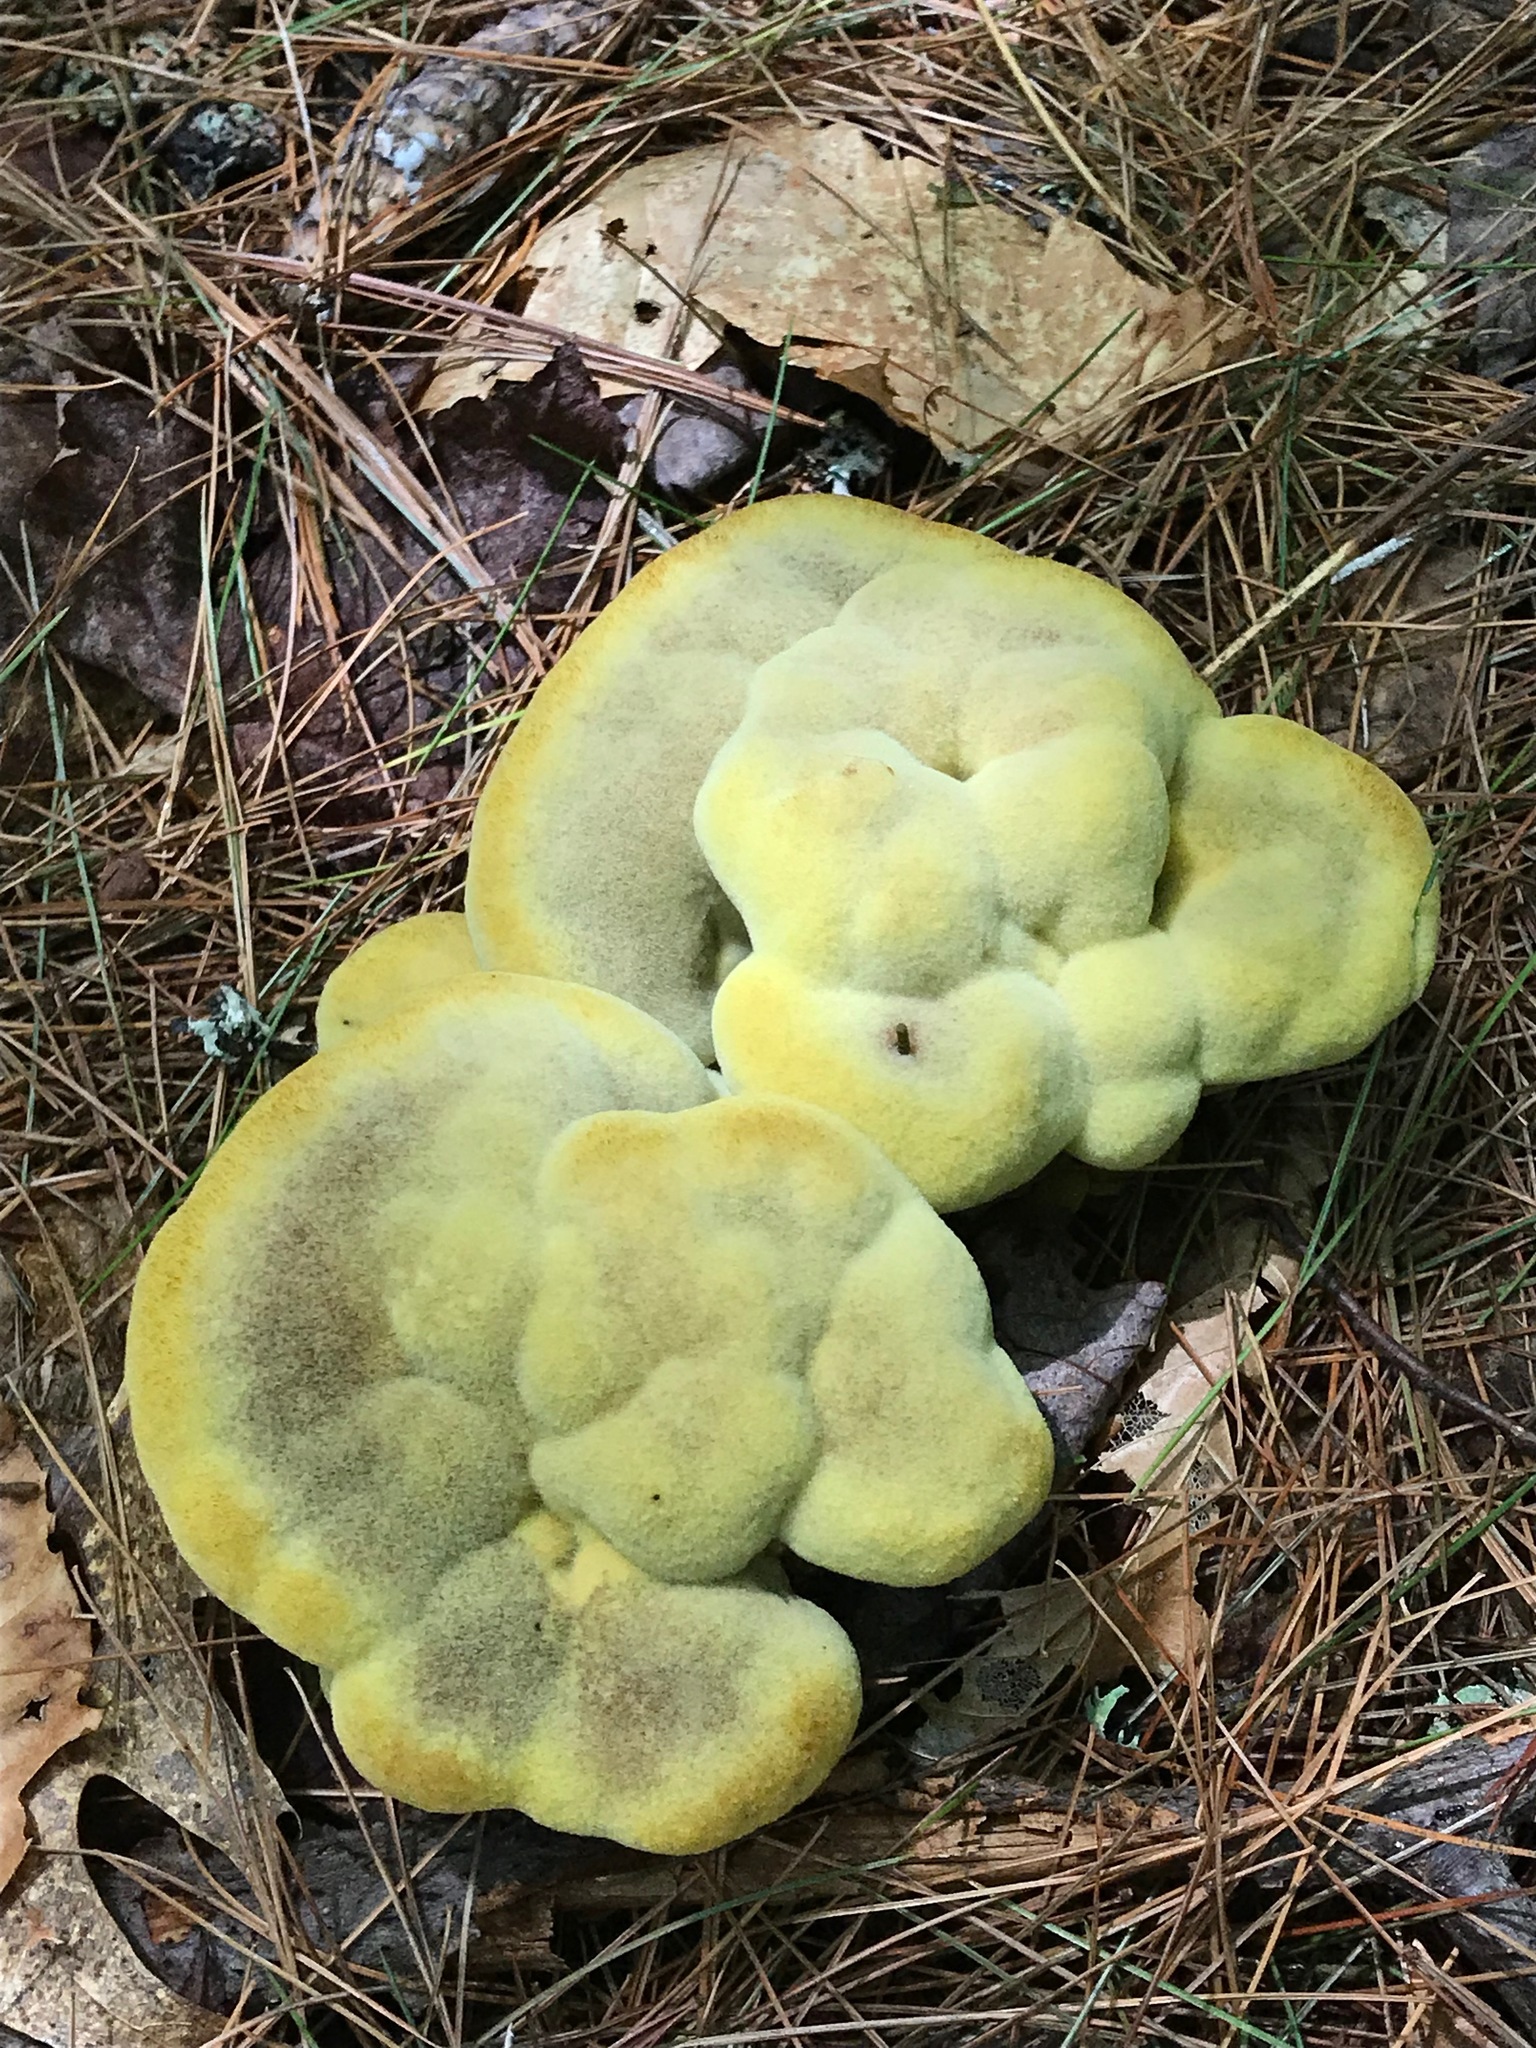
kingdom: Fungi
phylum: Basidiomycota
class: Agaricomycetes
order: Polyporales
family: Laetiporaceae
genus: Phaeolus
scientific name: Phaeolus schweinitzii
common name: Dyer's mazegill
